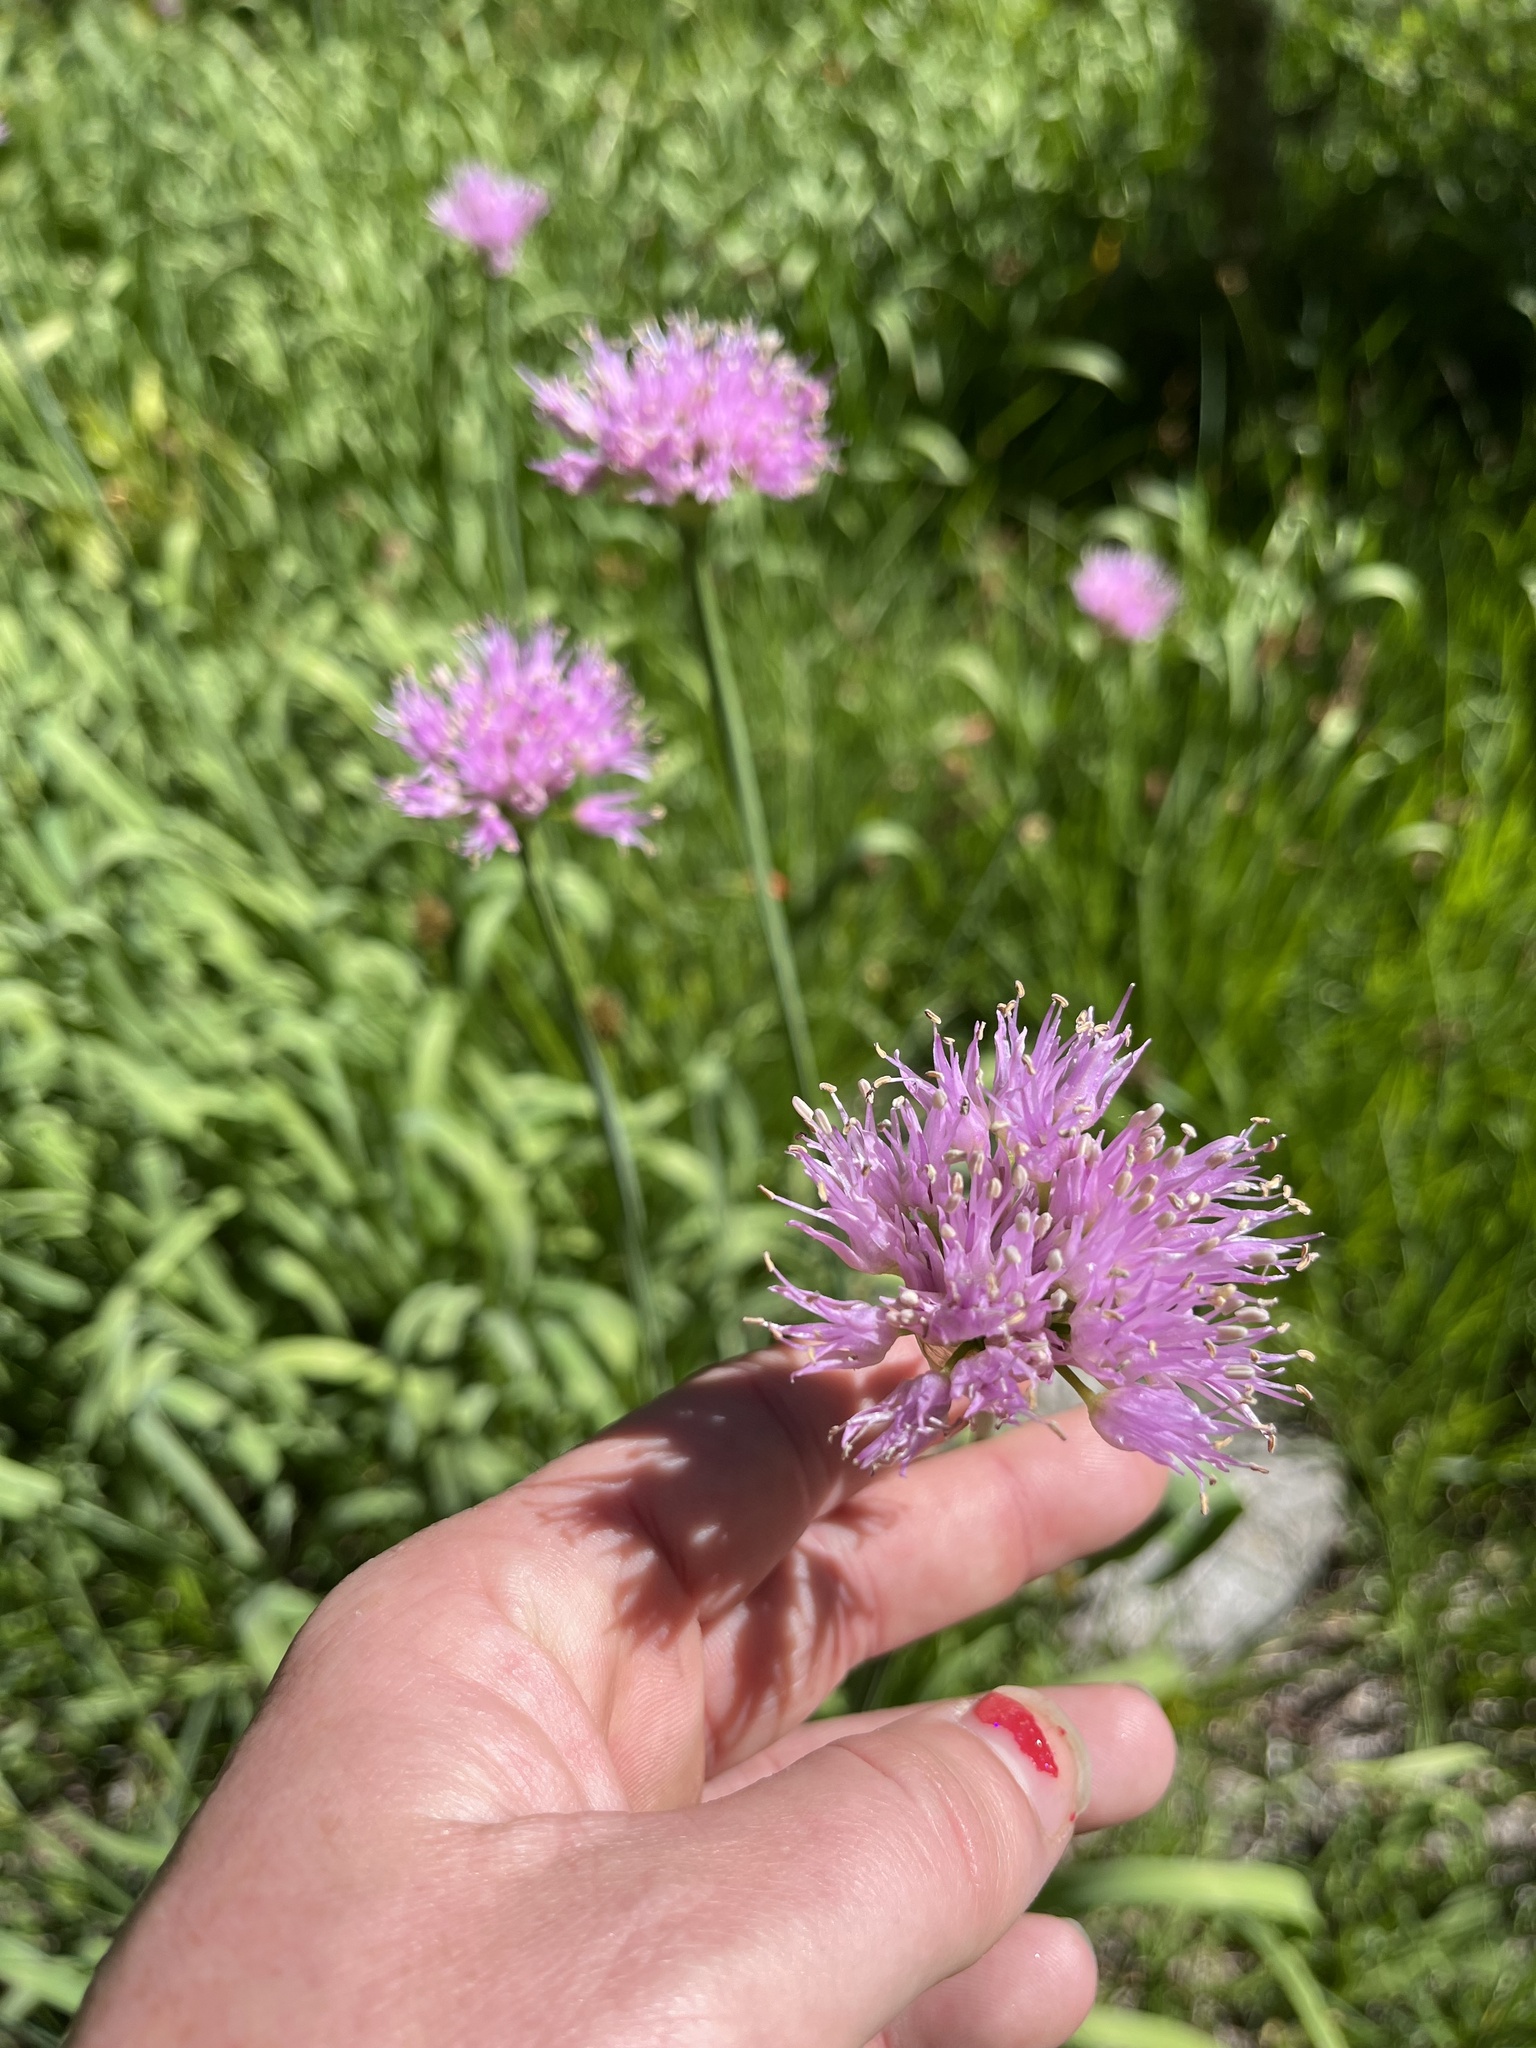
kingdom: Plantae
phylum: Tracheophyta
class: Liliopsida
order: Asparagales
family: Amaryllidaceae
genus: Allium
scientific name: Allium validum
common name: Pacific mountain onion
